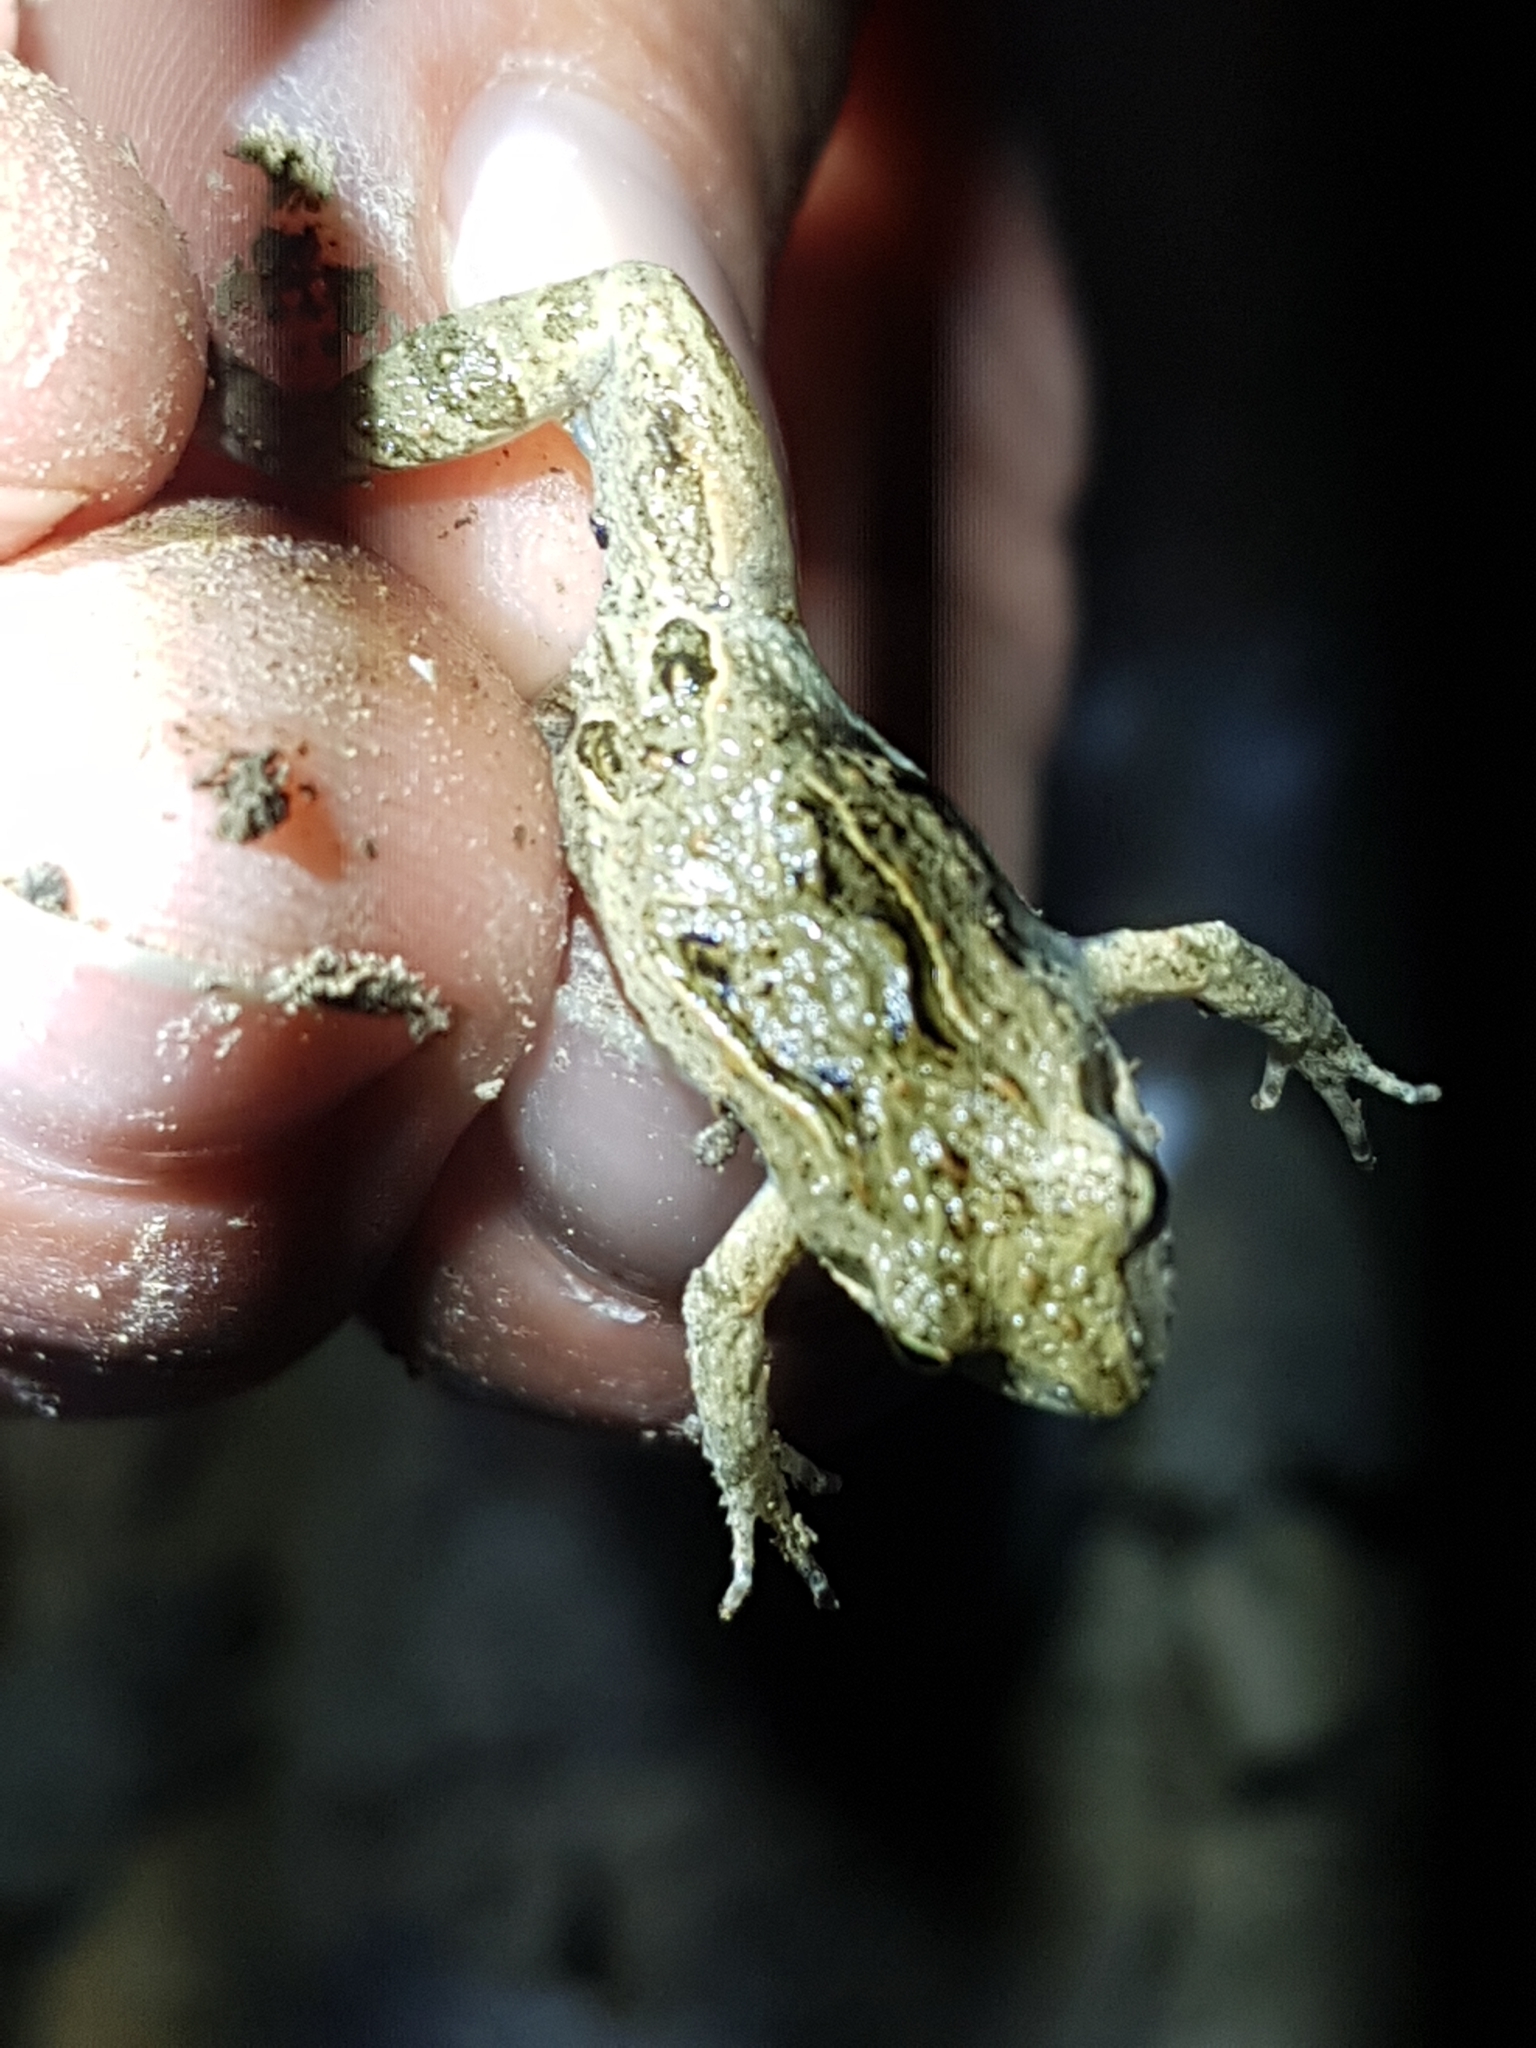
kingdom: Animalia
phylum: Chordata
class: Amphibia
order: Anura
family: Myobatrachidae
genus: Crinia
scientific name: Crinia signifera
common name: Brown froglet
